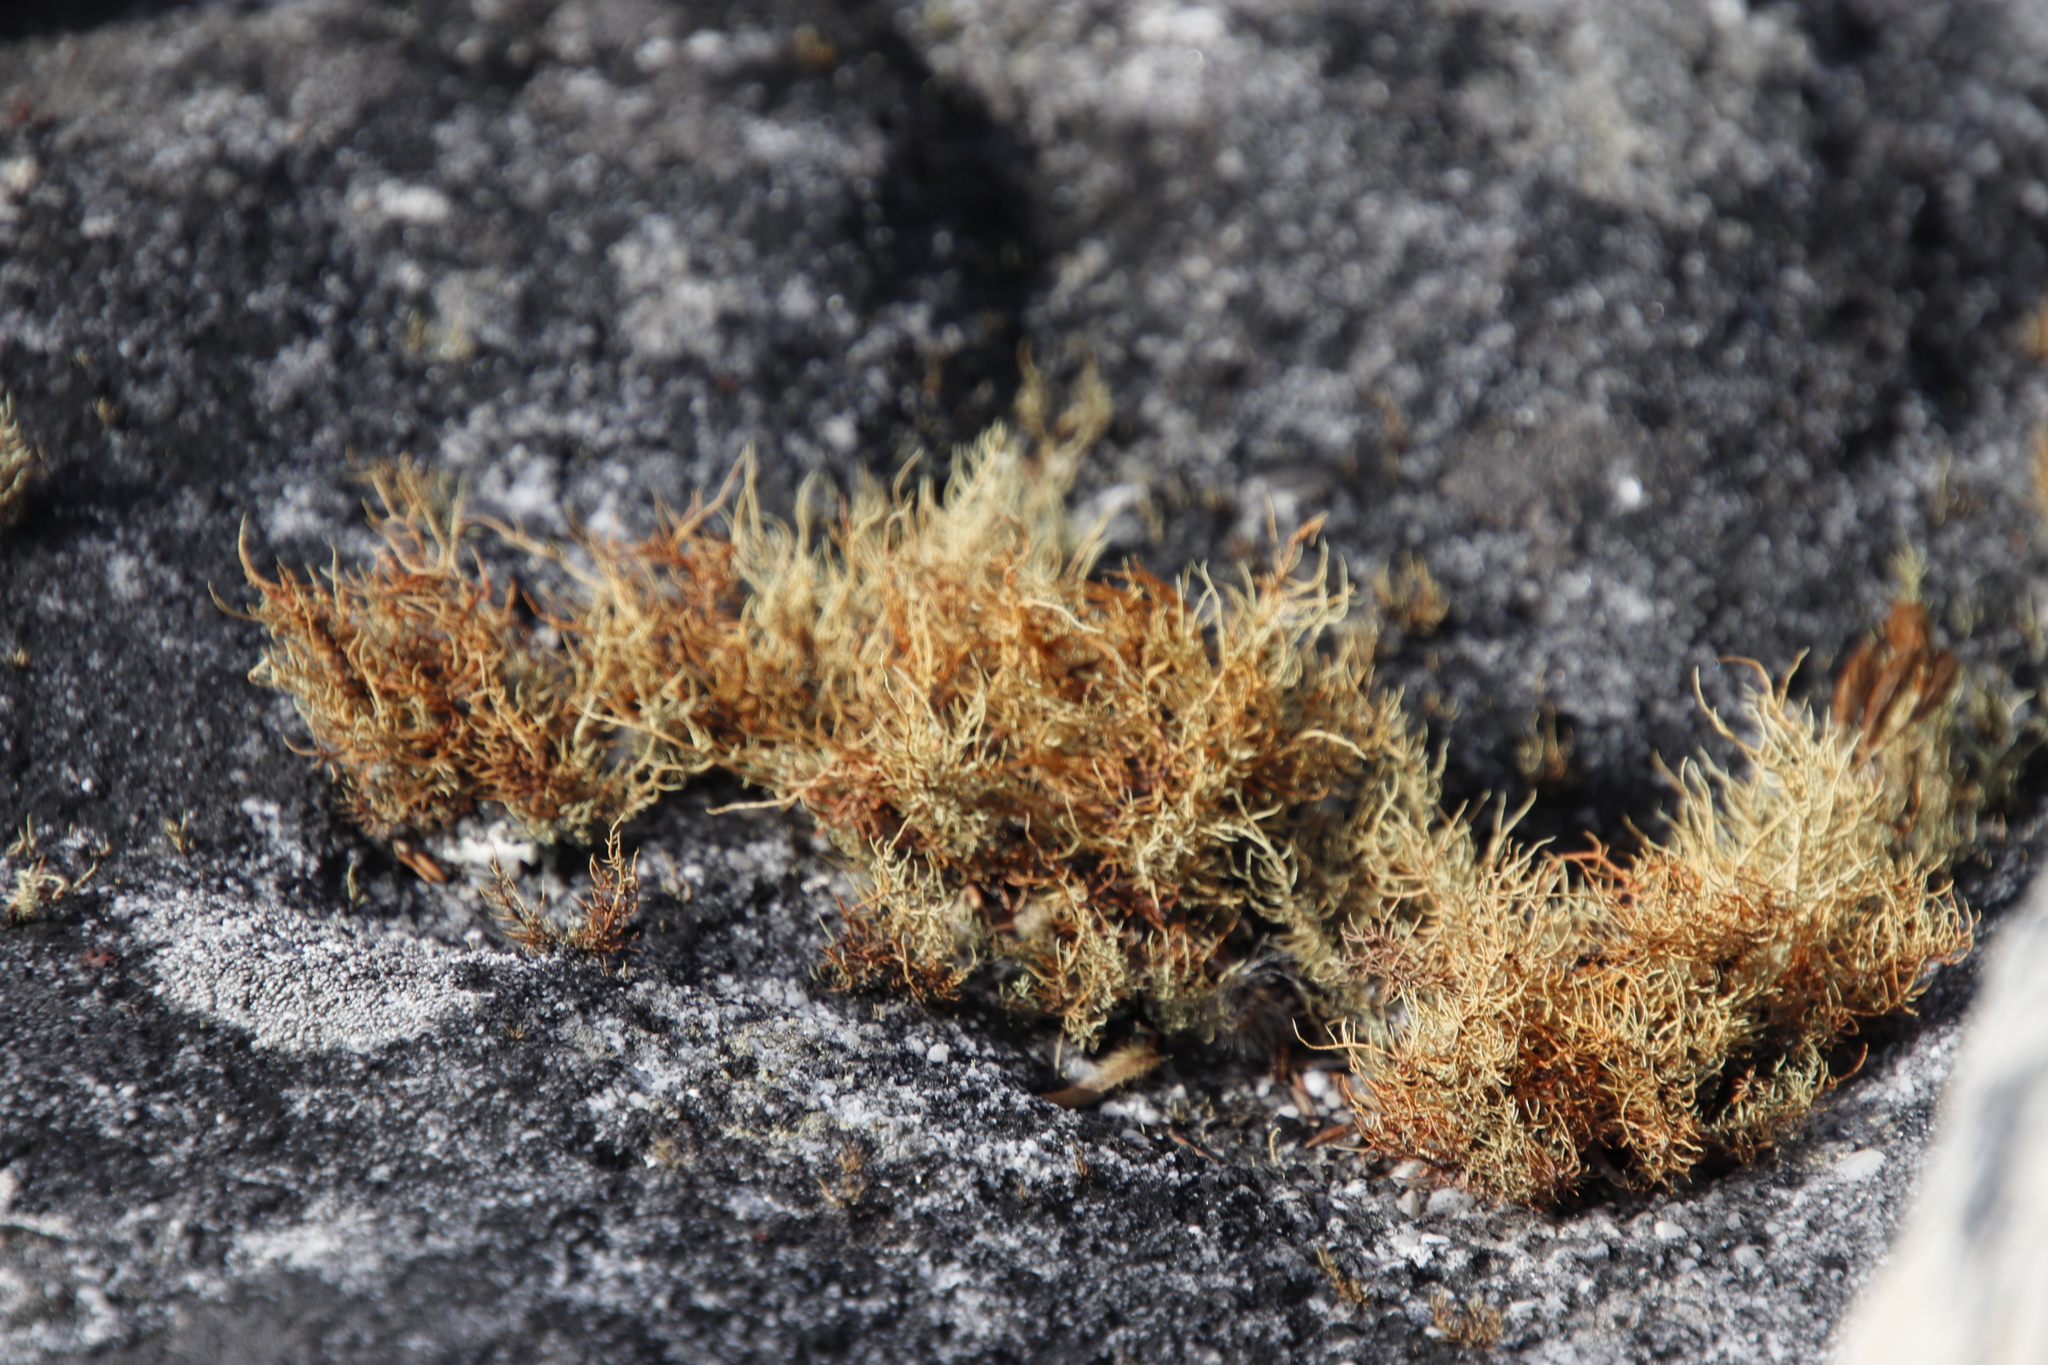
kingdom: Fungi
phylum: Ascomycota
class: Lecanoromycetes
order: Lecanorales
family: Parmeliaceae
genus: Usnea
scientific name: Usnea maculata
